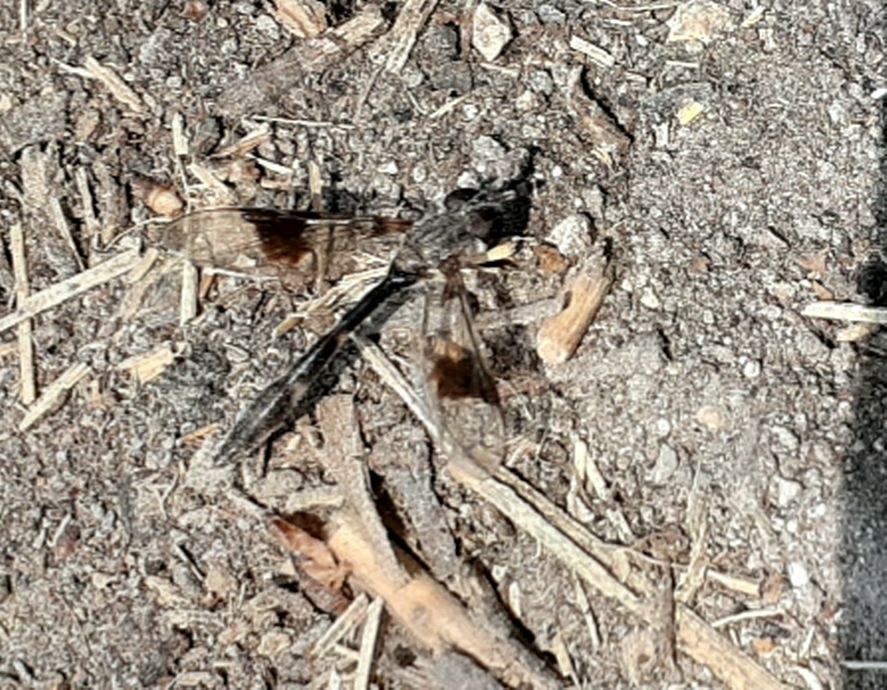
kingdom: Animalia
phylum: Arthropoda
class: Insecta
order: Diptera
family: Syrphidae
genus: Hypocritanus
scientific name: Hypocritanus fascipennis
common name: Eastern band-winged hover fly
